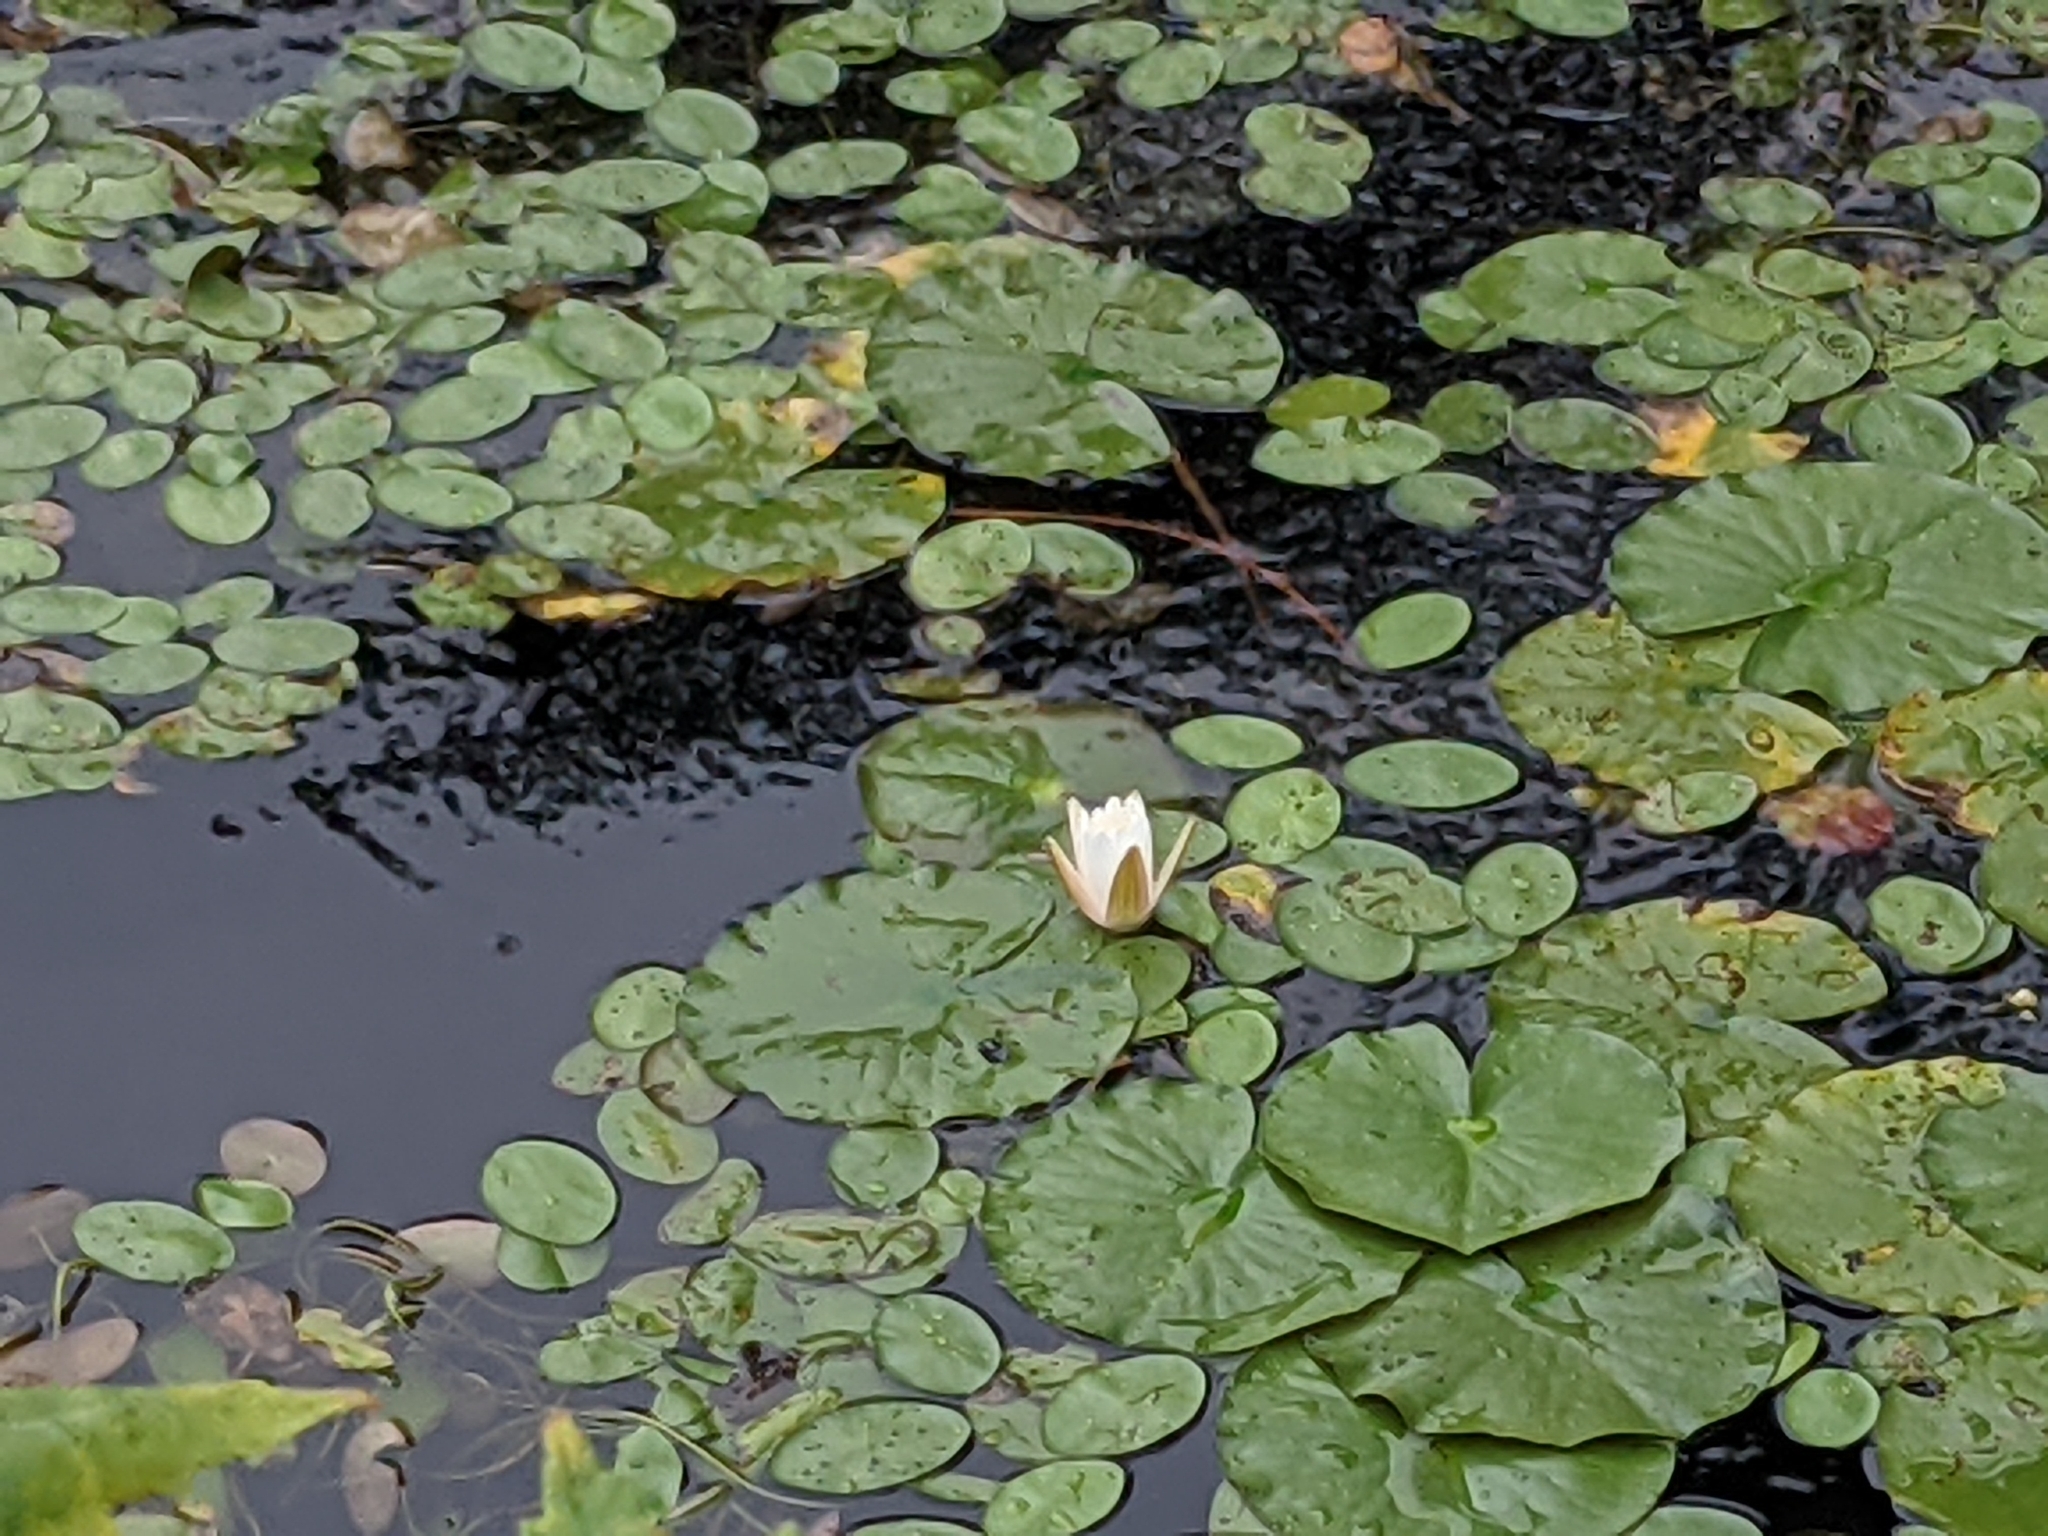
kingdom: Plantae
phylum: Tracheophyta
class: Magnoliopsida
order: Nymphaeales
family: Nymphaeaceae
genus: Nymphaea
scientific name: Nymphaea odorata
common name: Fragrant water-lily
